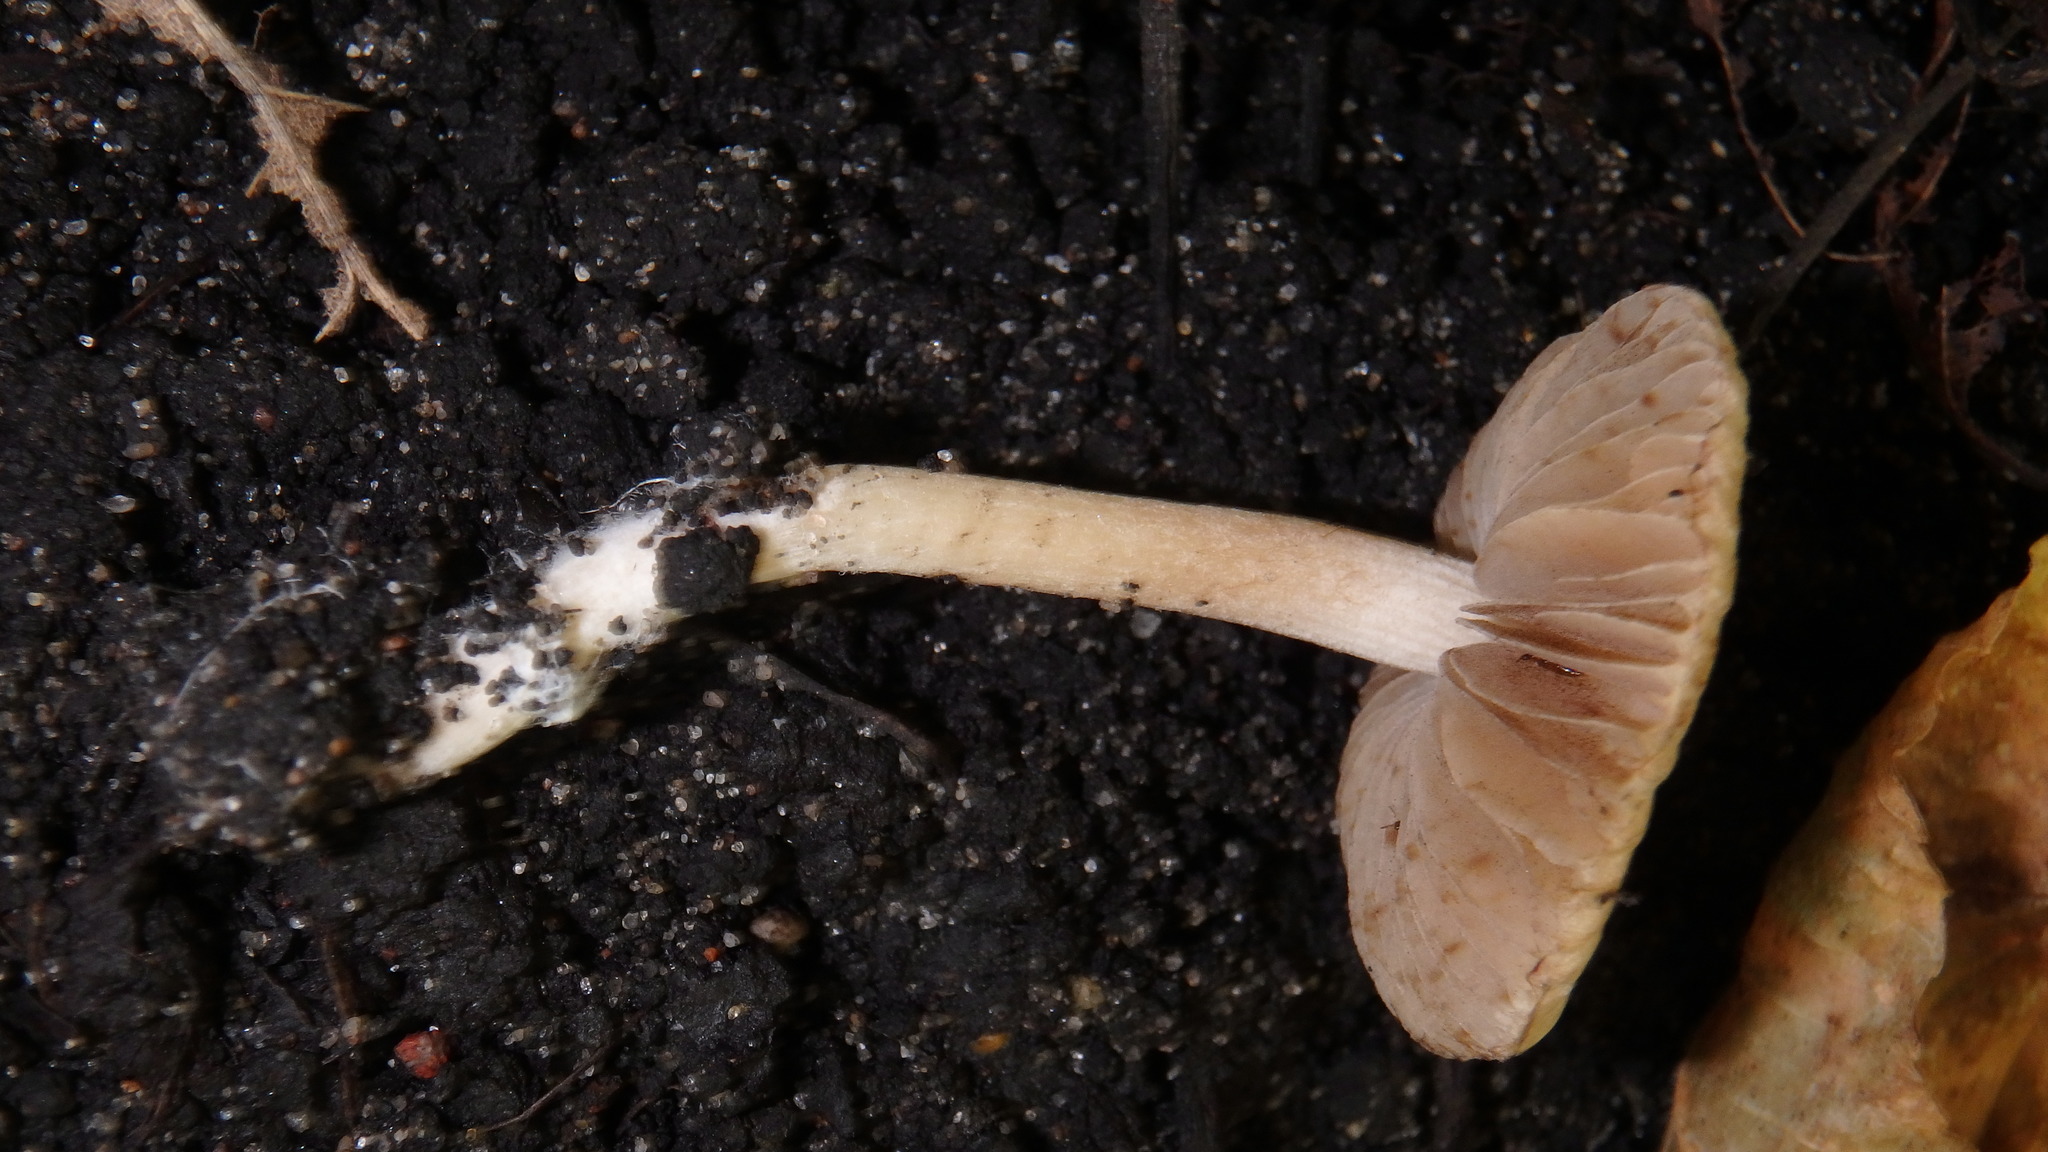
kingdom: Fungi
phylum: Basidiomycota
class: Agaricomycetes
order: Agaricales
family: Inocybaceae
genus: Pseudosperma
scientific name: Pseudosperma rimosum
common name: Split fibrecap
